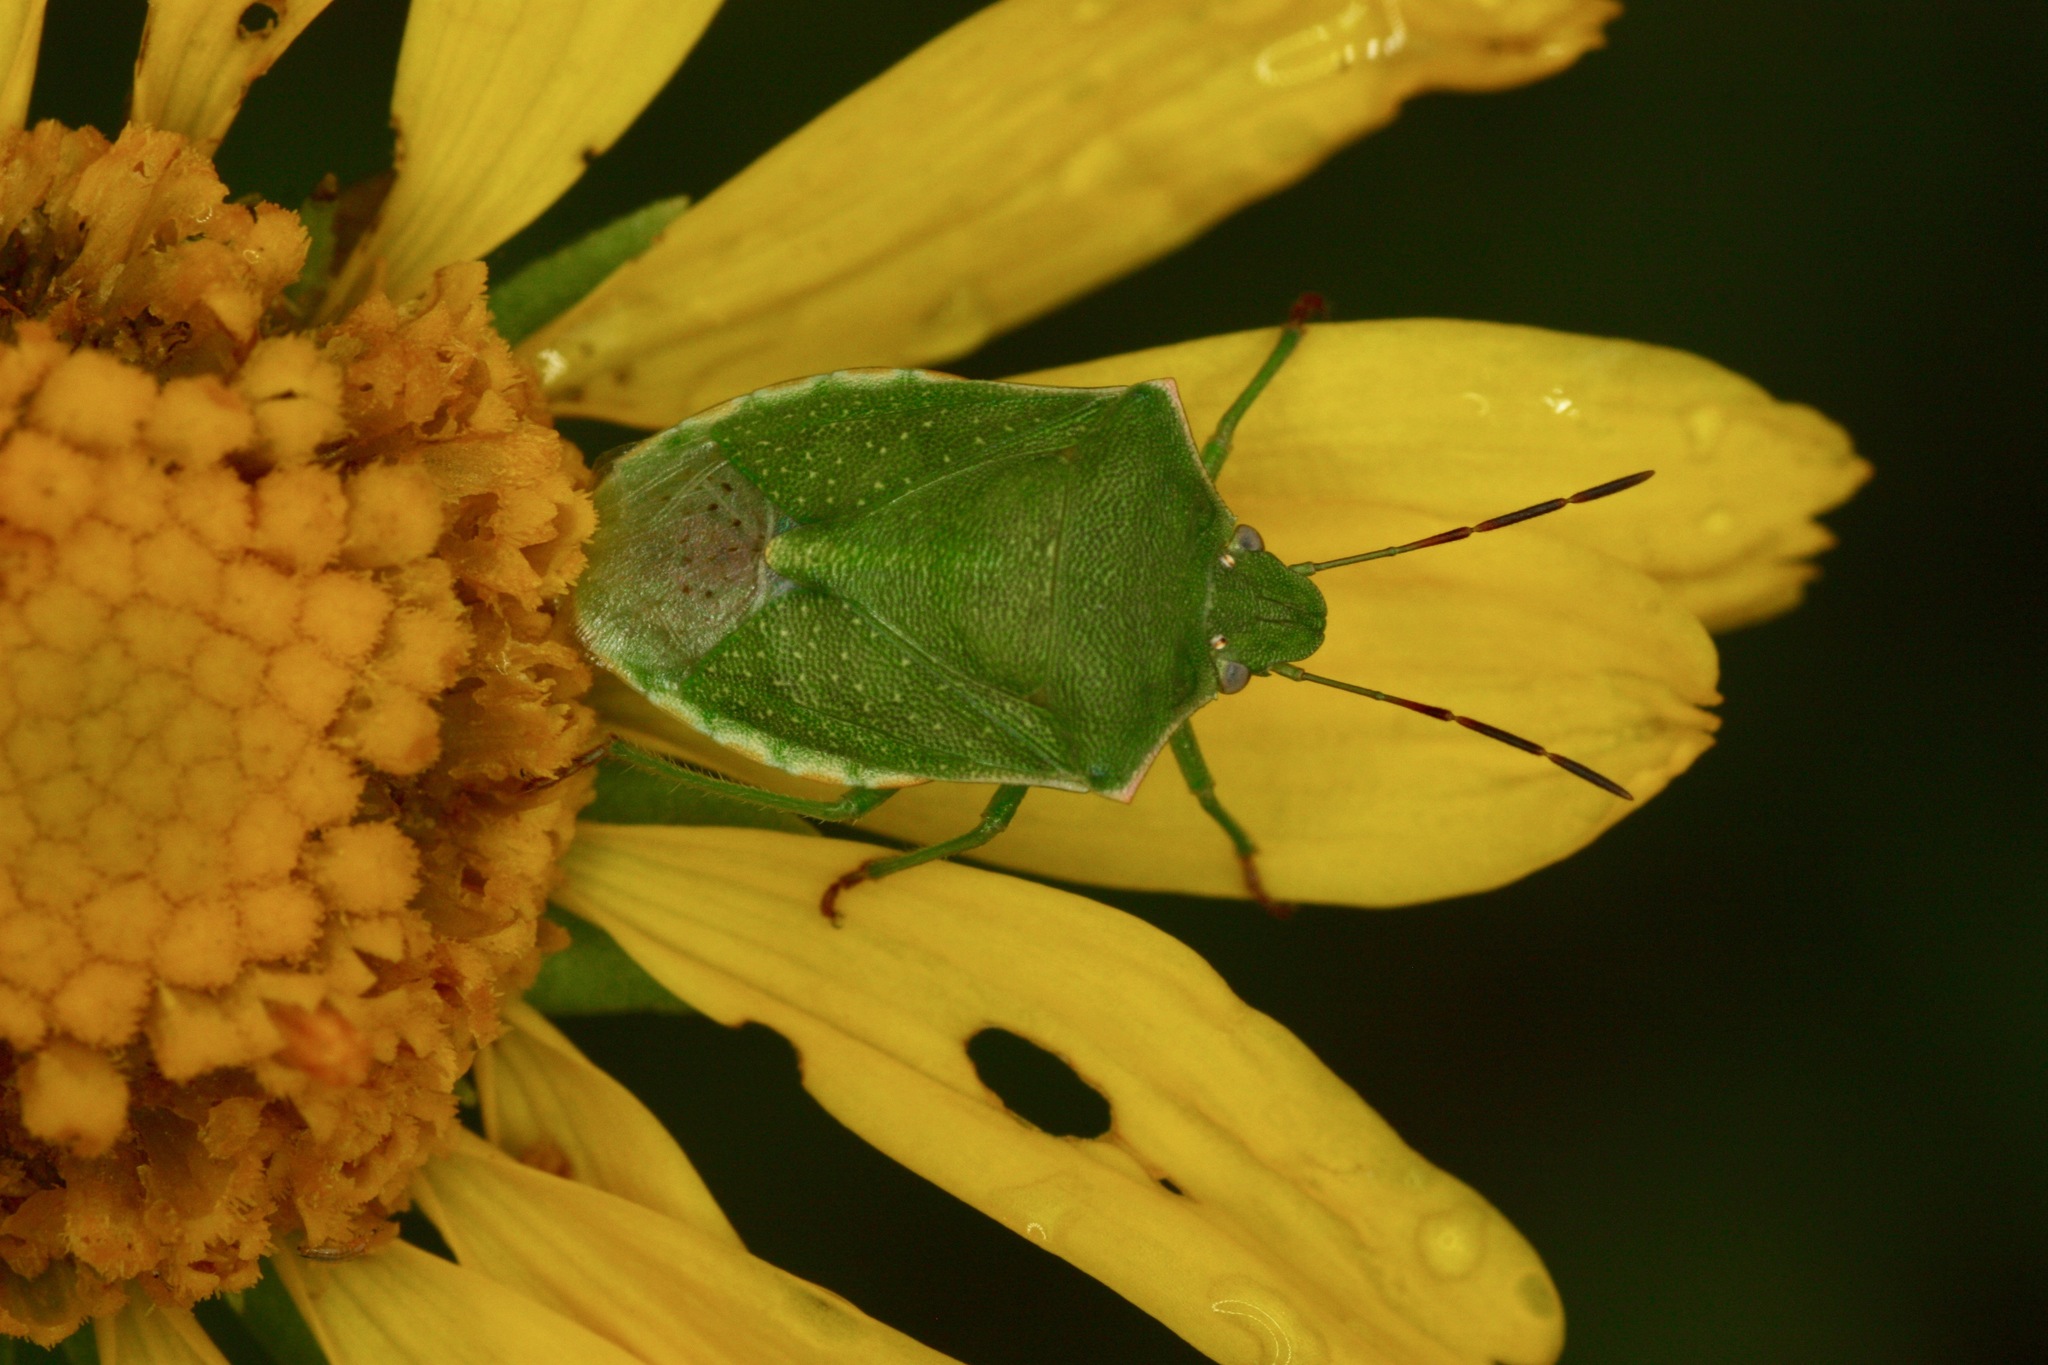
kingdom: Animalia
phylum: Arthropoda
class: Insecta
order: Hemiptera
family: Pentatomidae
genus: Thyanta
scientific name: Thyanta accerra
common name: Stink bug
